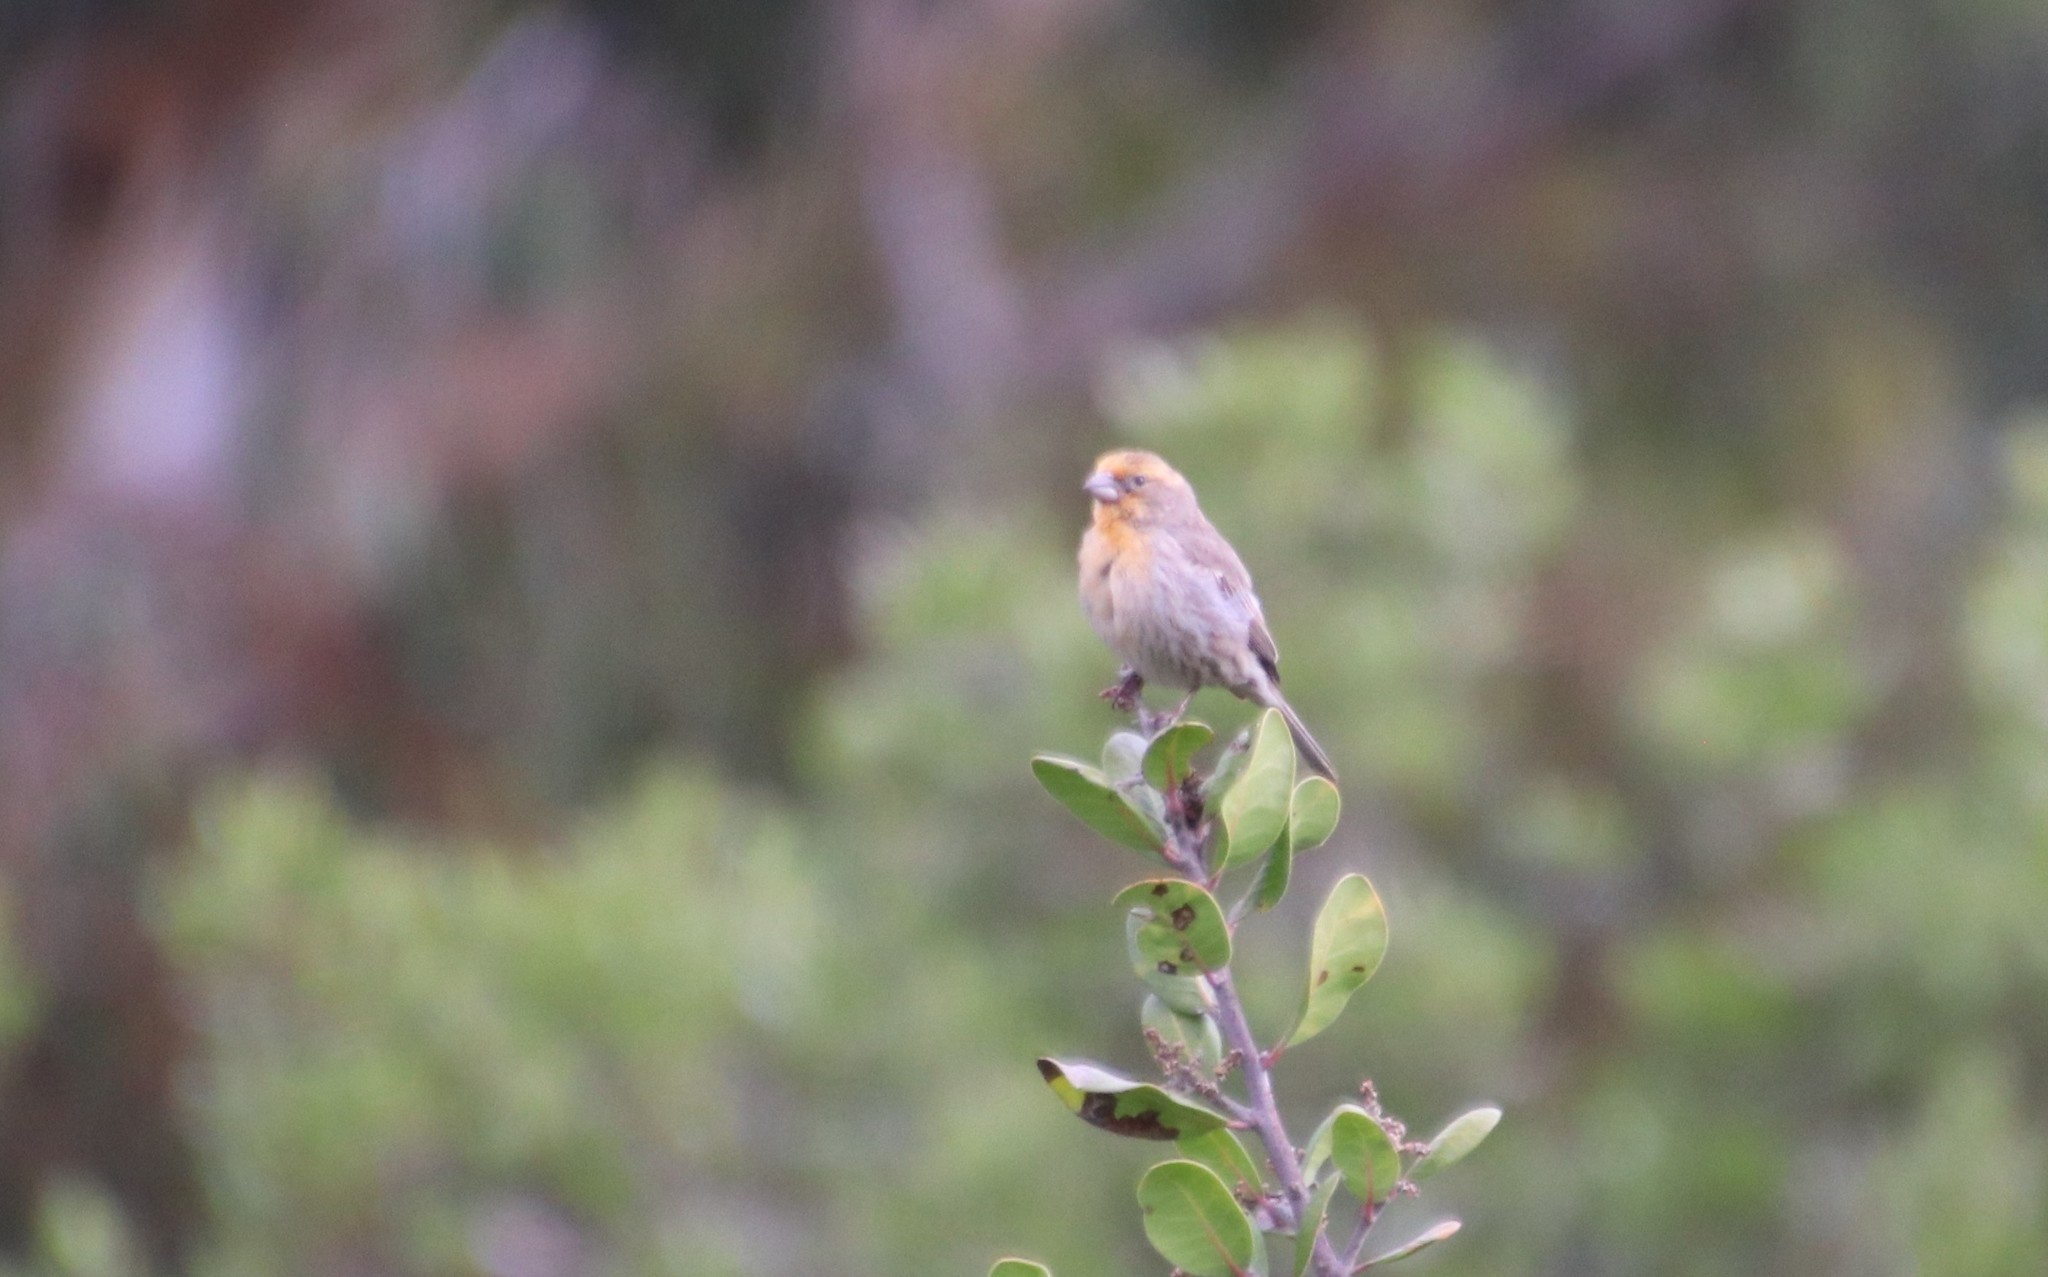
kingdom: Animalia
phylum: Chordata
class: Aves
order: Passeriformes
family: Fringillidae
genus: Haemorhous
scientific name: Haemorhous mexicanus
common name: House finch
